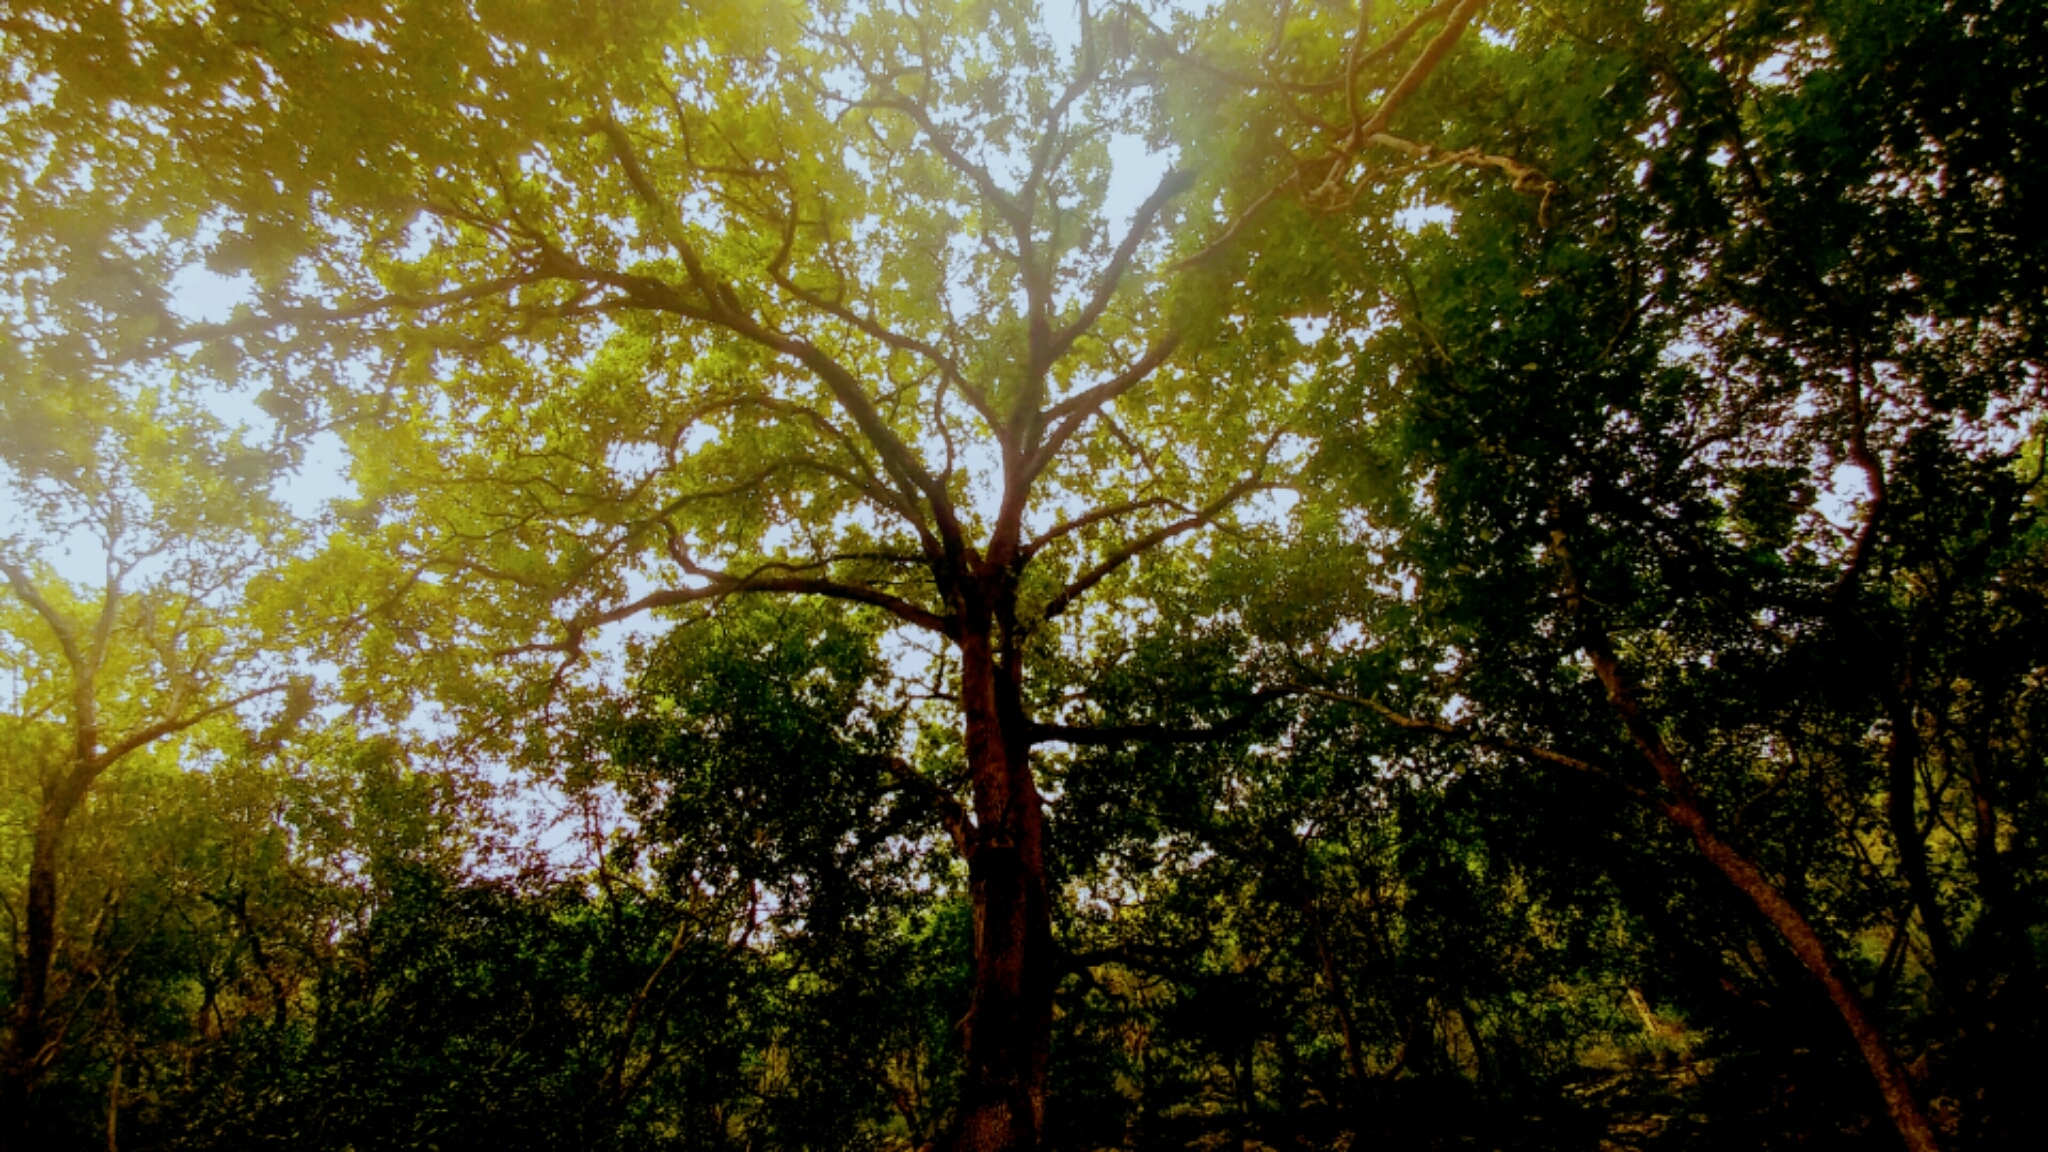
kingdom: Plantae
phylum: Tracheophyta
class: Magnoliopsida
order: Fagales
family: Fagaceae
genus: Quercus
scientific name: Quercus polymorpha
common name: Mexican white oak
